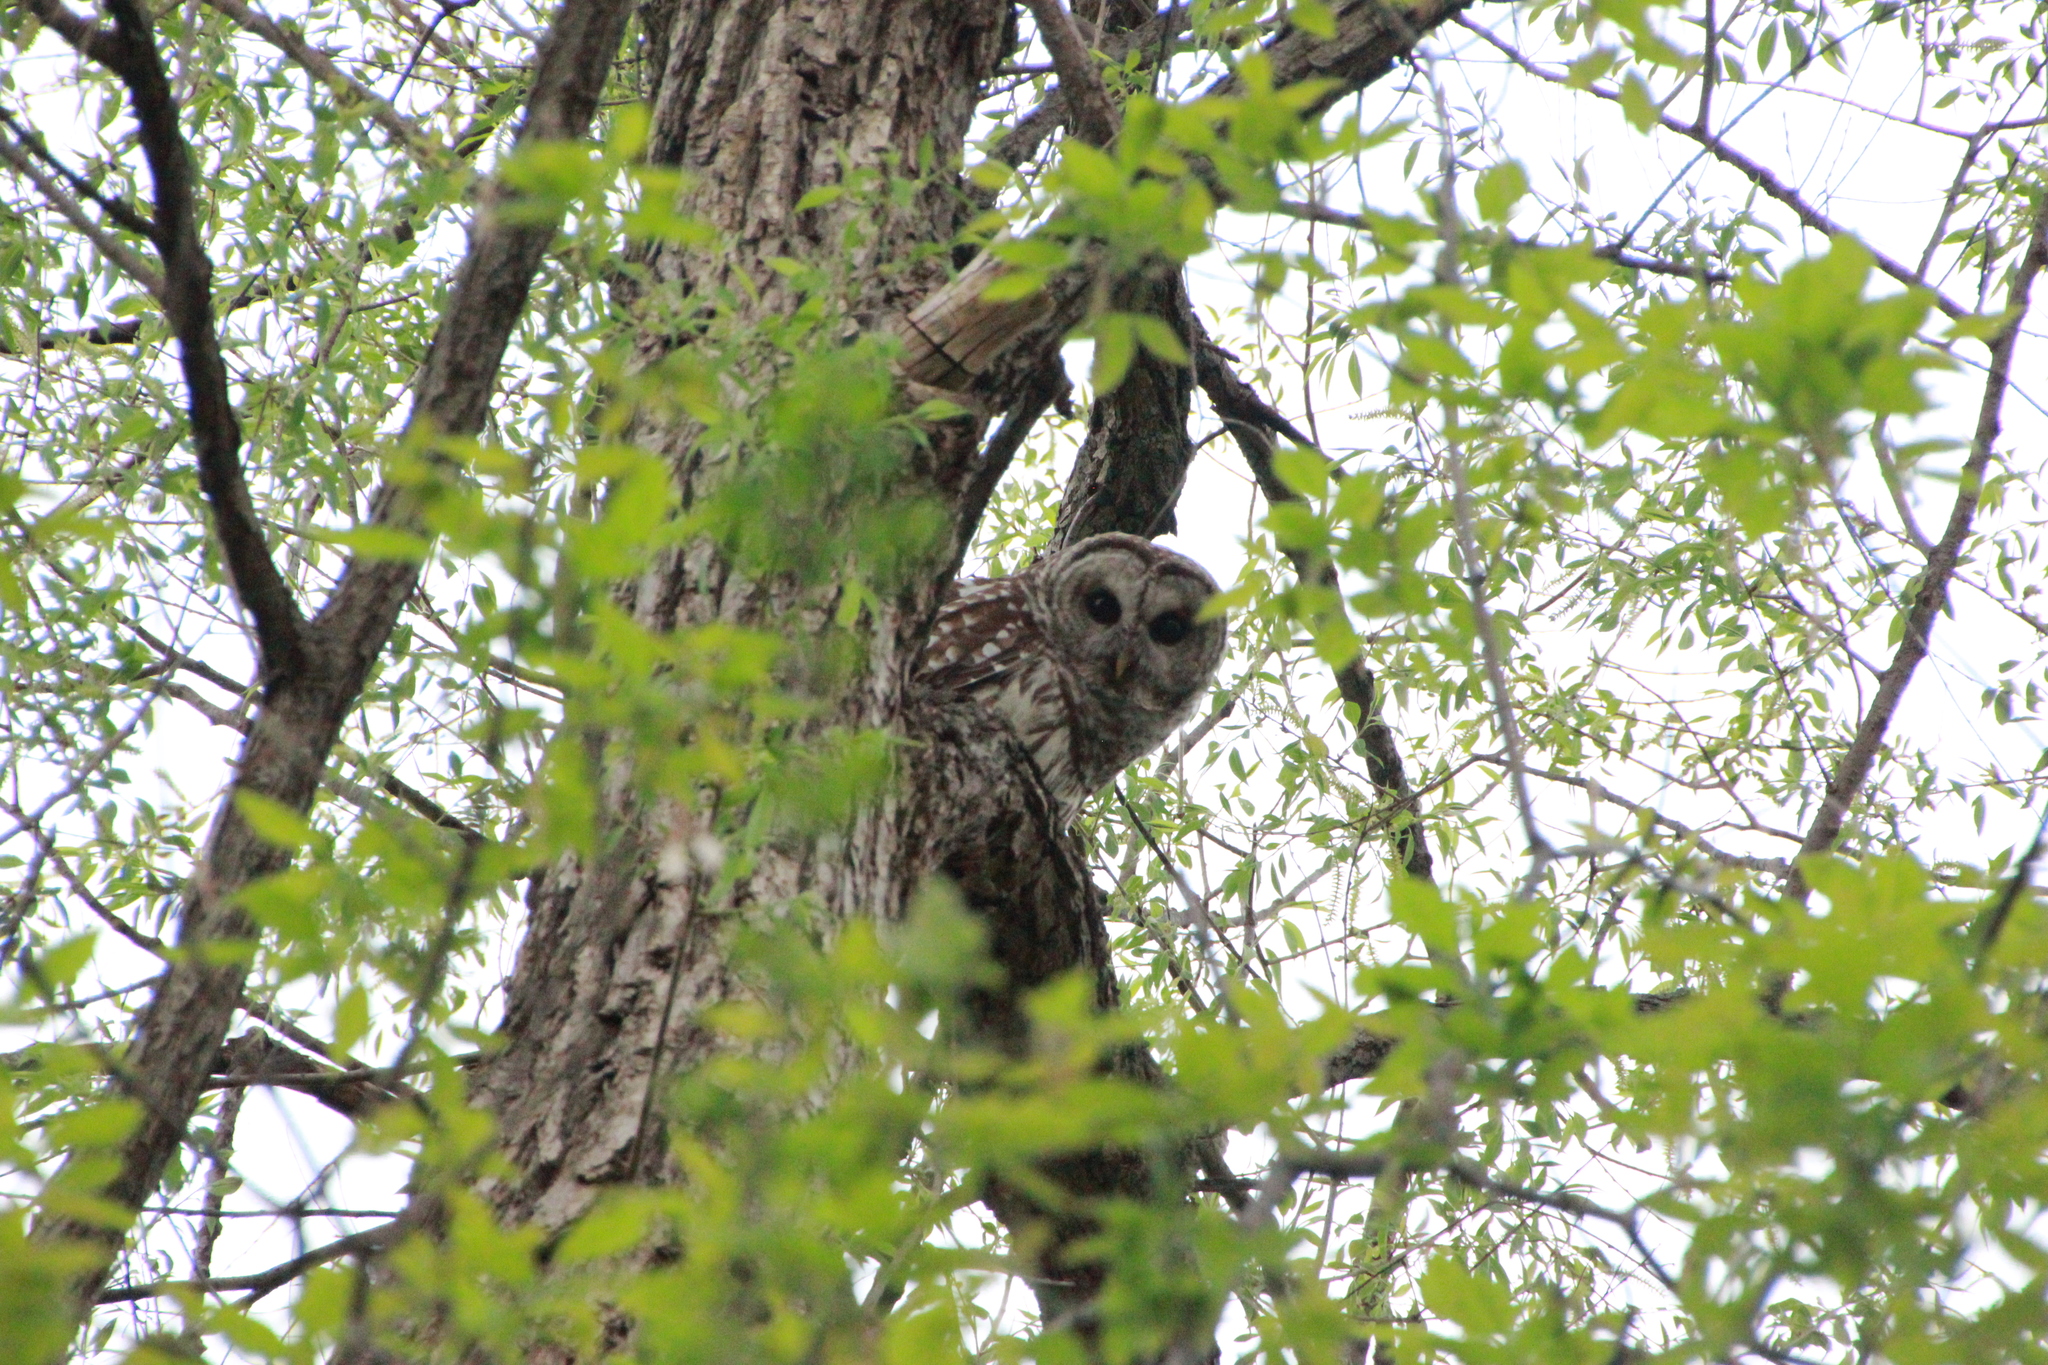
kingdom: Animalia
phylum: Chordata
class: Aves
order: Strigiformes
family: Strigidae
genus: Strix
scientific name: Strix varia
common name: Barred owl
